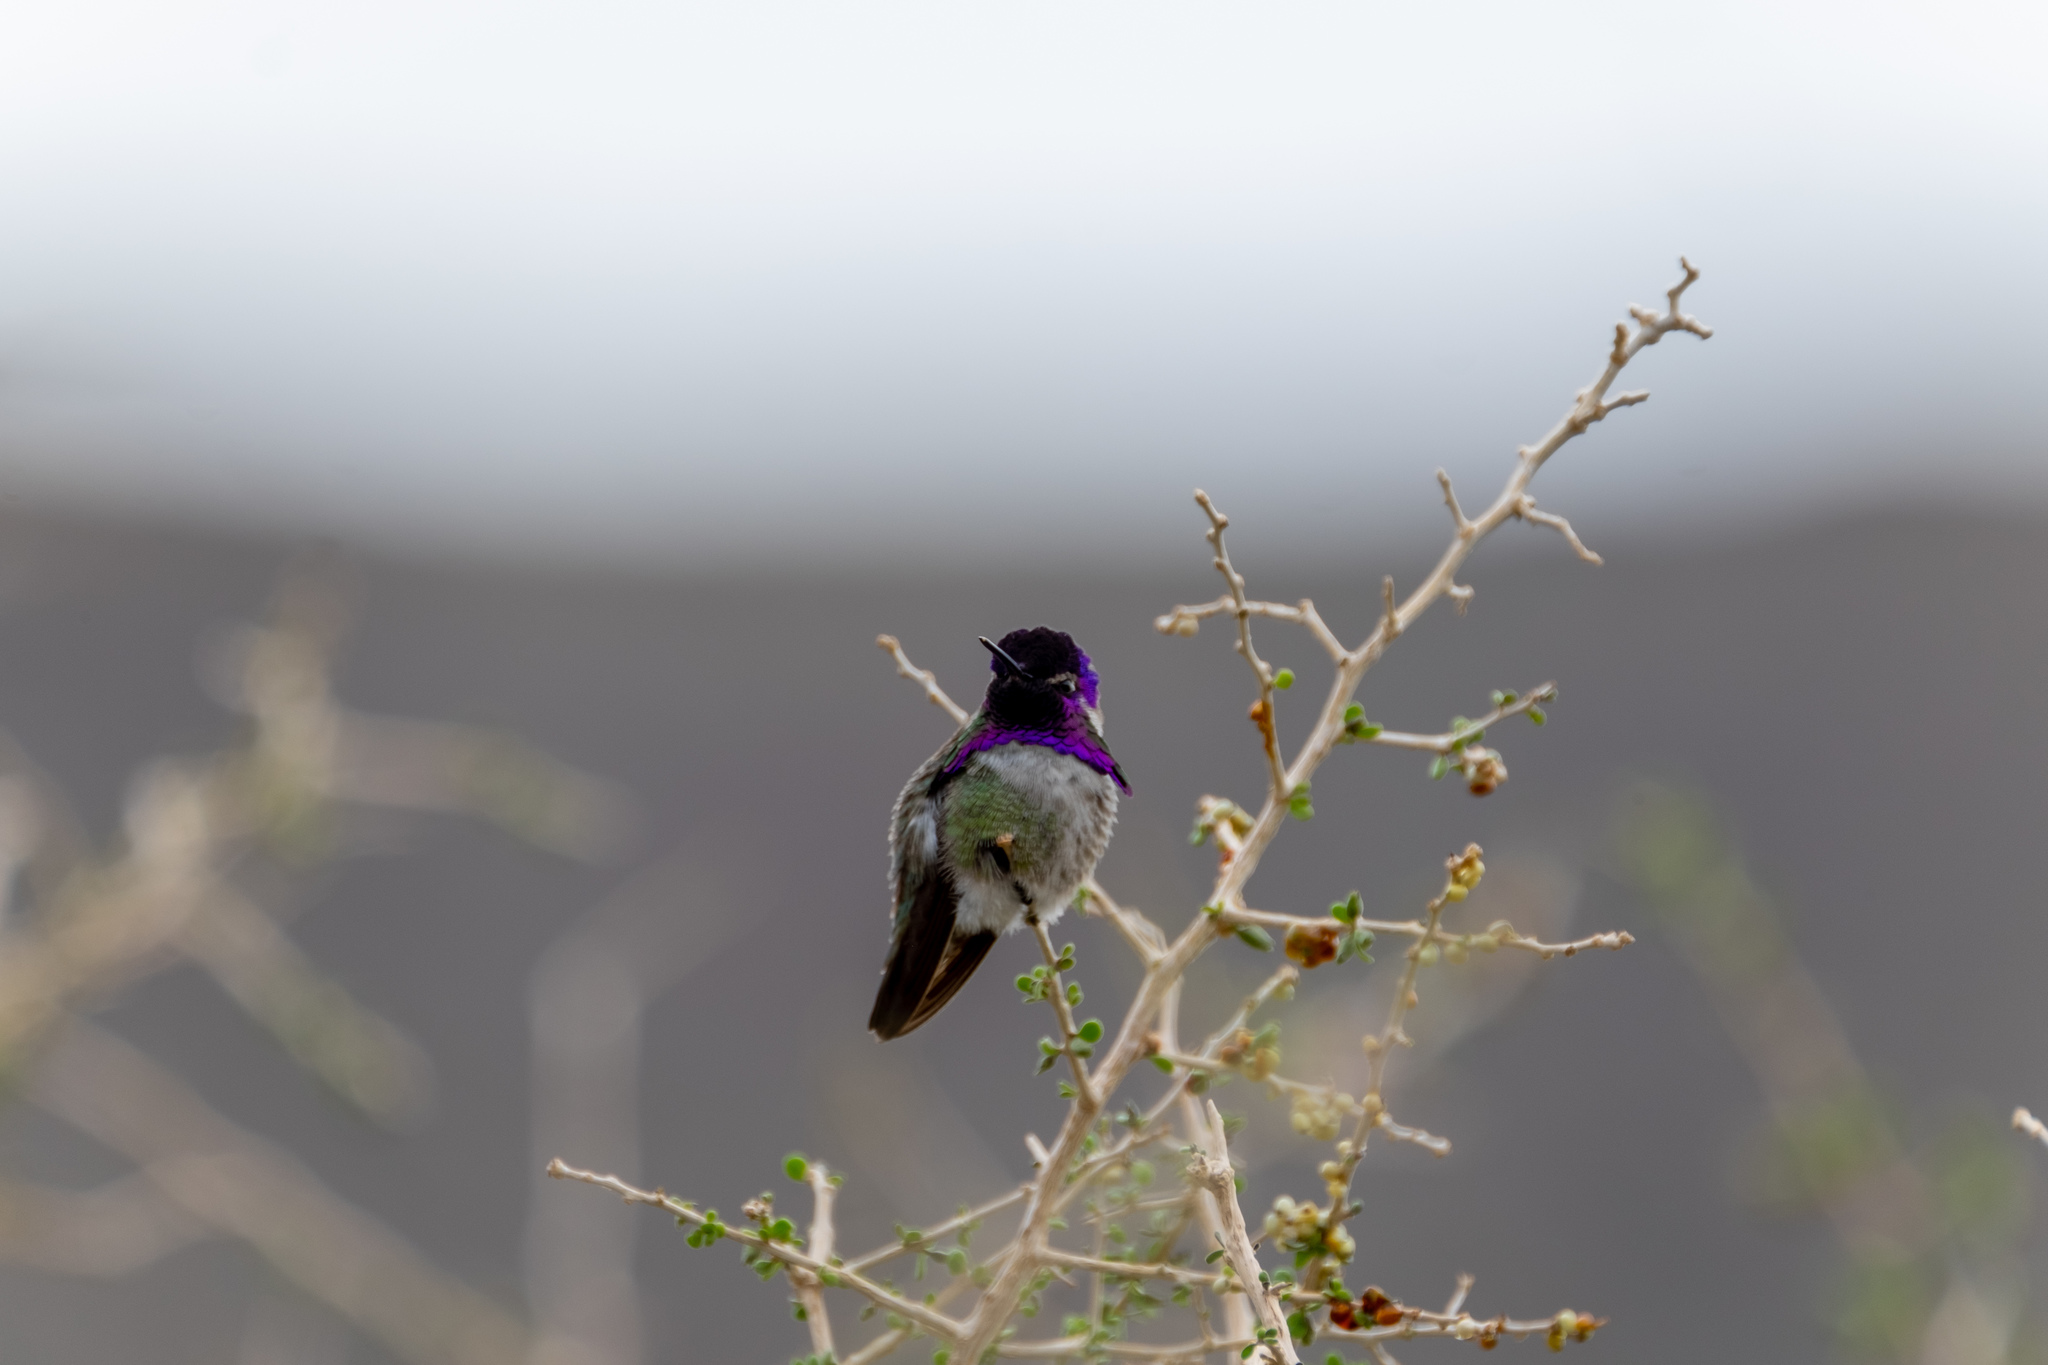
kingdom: Animalia
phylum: Chordata
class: Aves
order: Apodiformes
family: Trochilidae
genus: Calypte
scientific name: Calypte costae
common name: Costa's hummingbird
